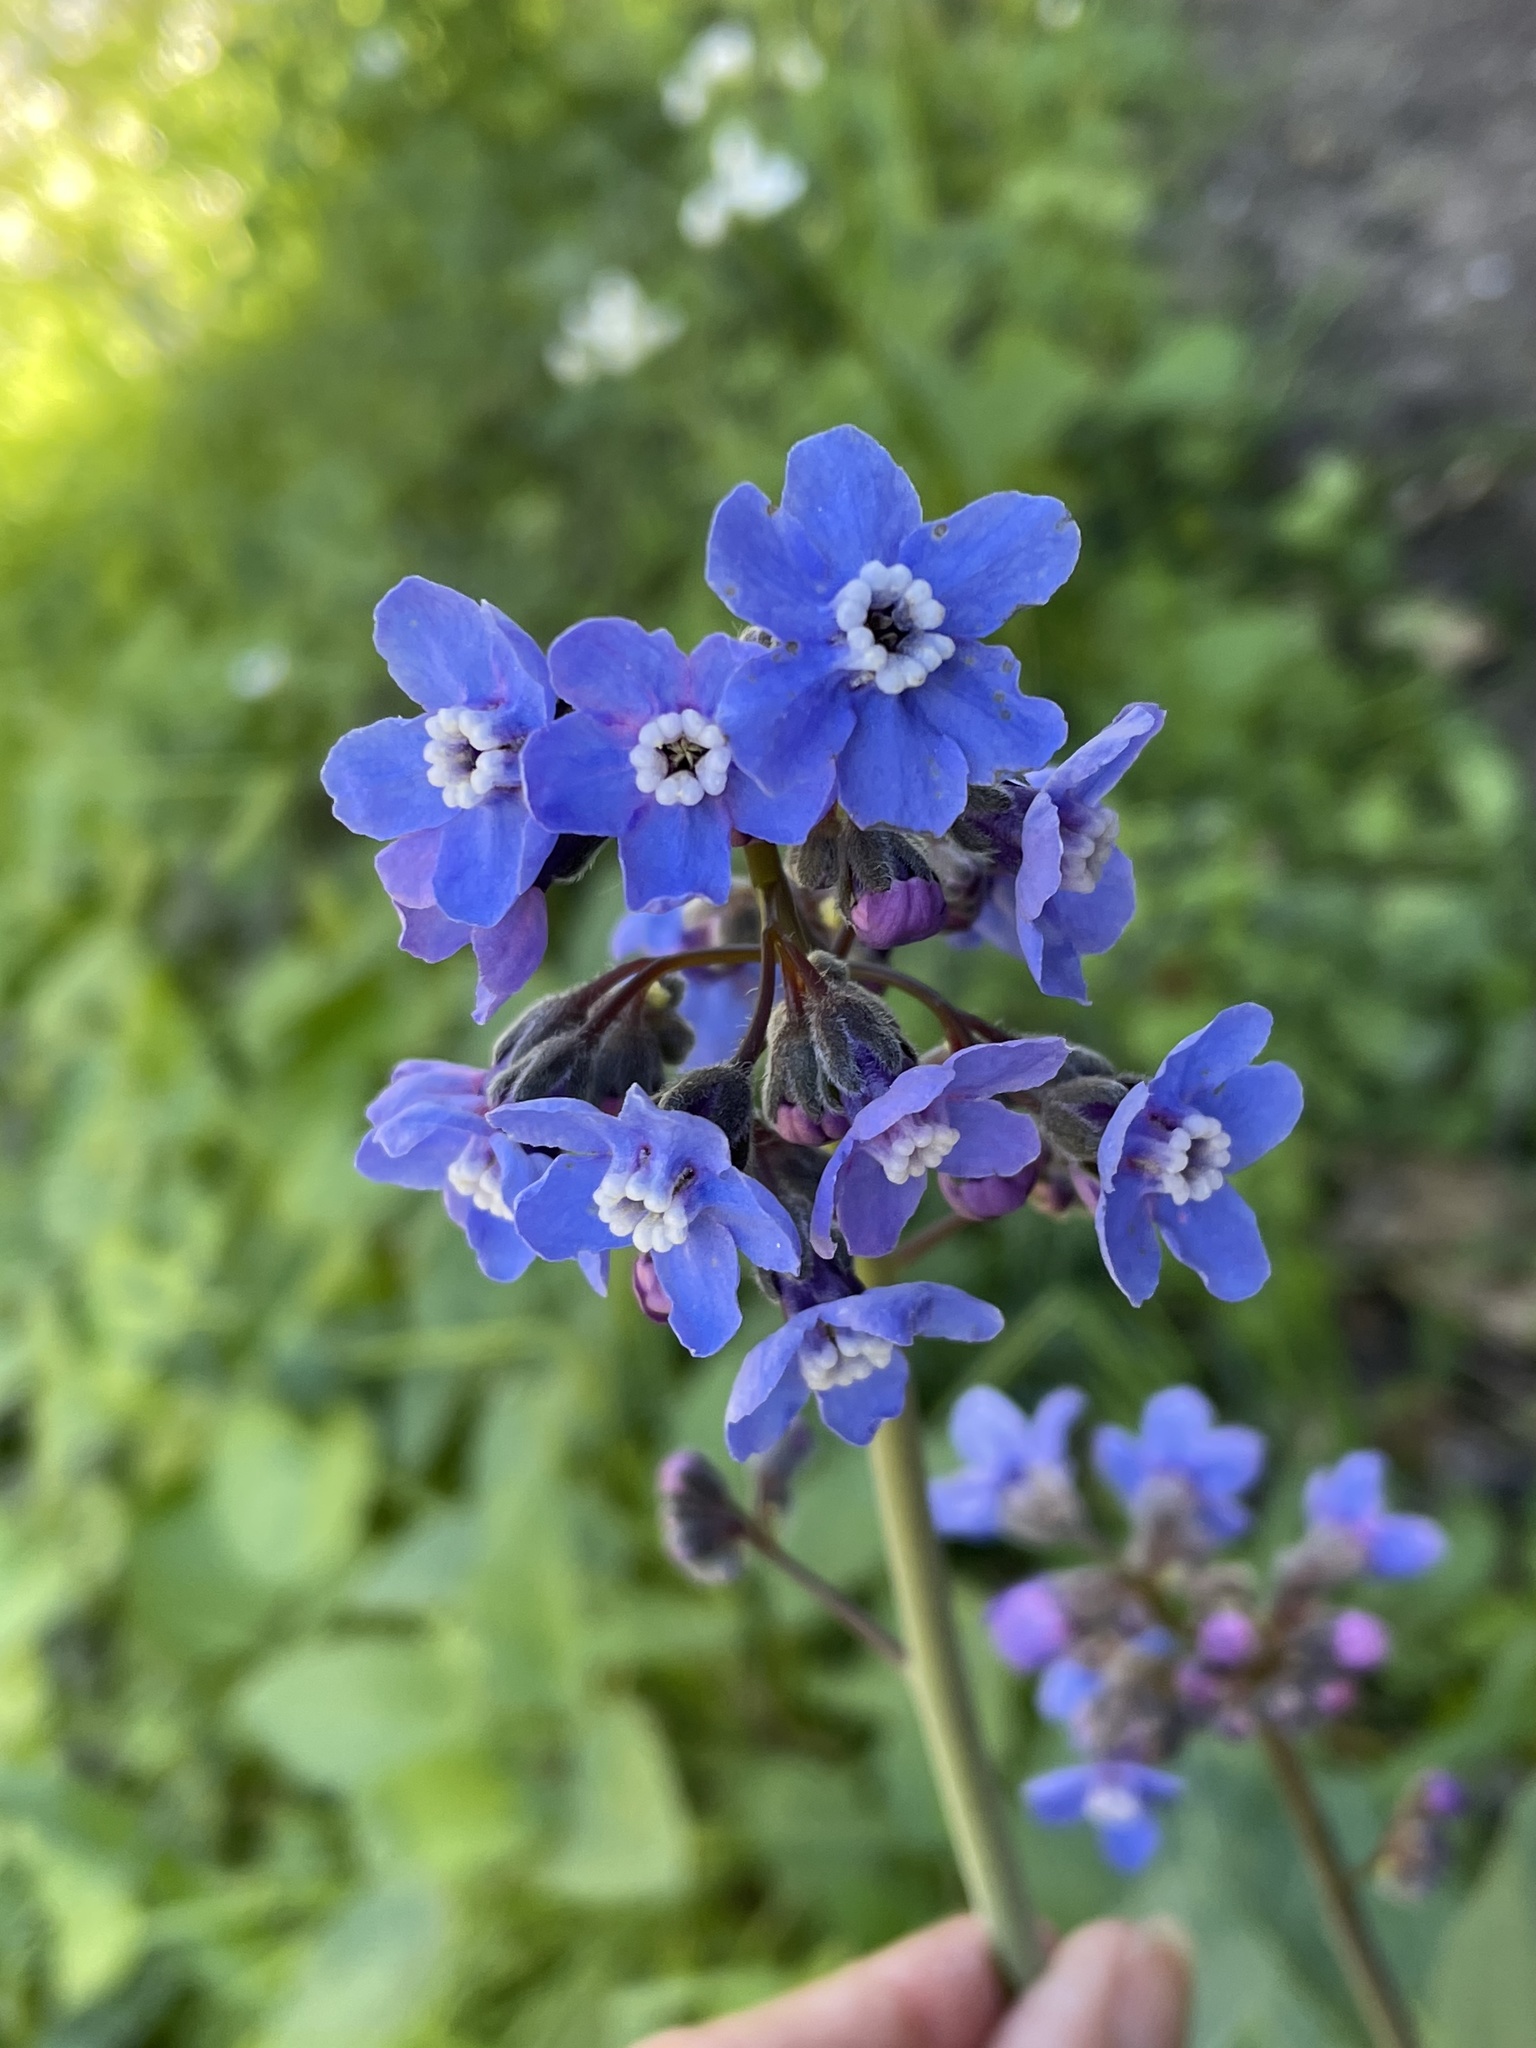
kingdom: Plantae
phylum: Tracheophyta
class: Magnoliopsida
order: Boraginales
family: Boraginaceae
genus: Adelinia
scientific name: Adelinia grande
